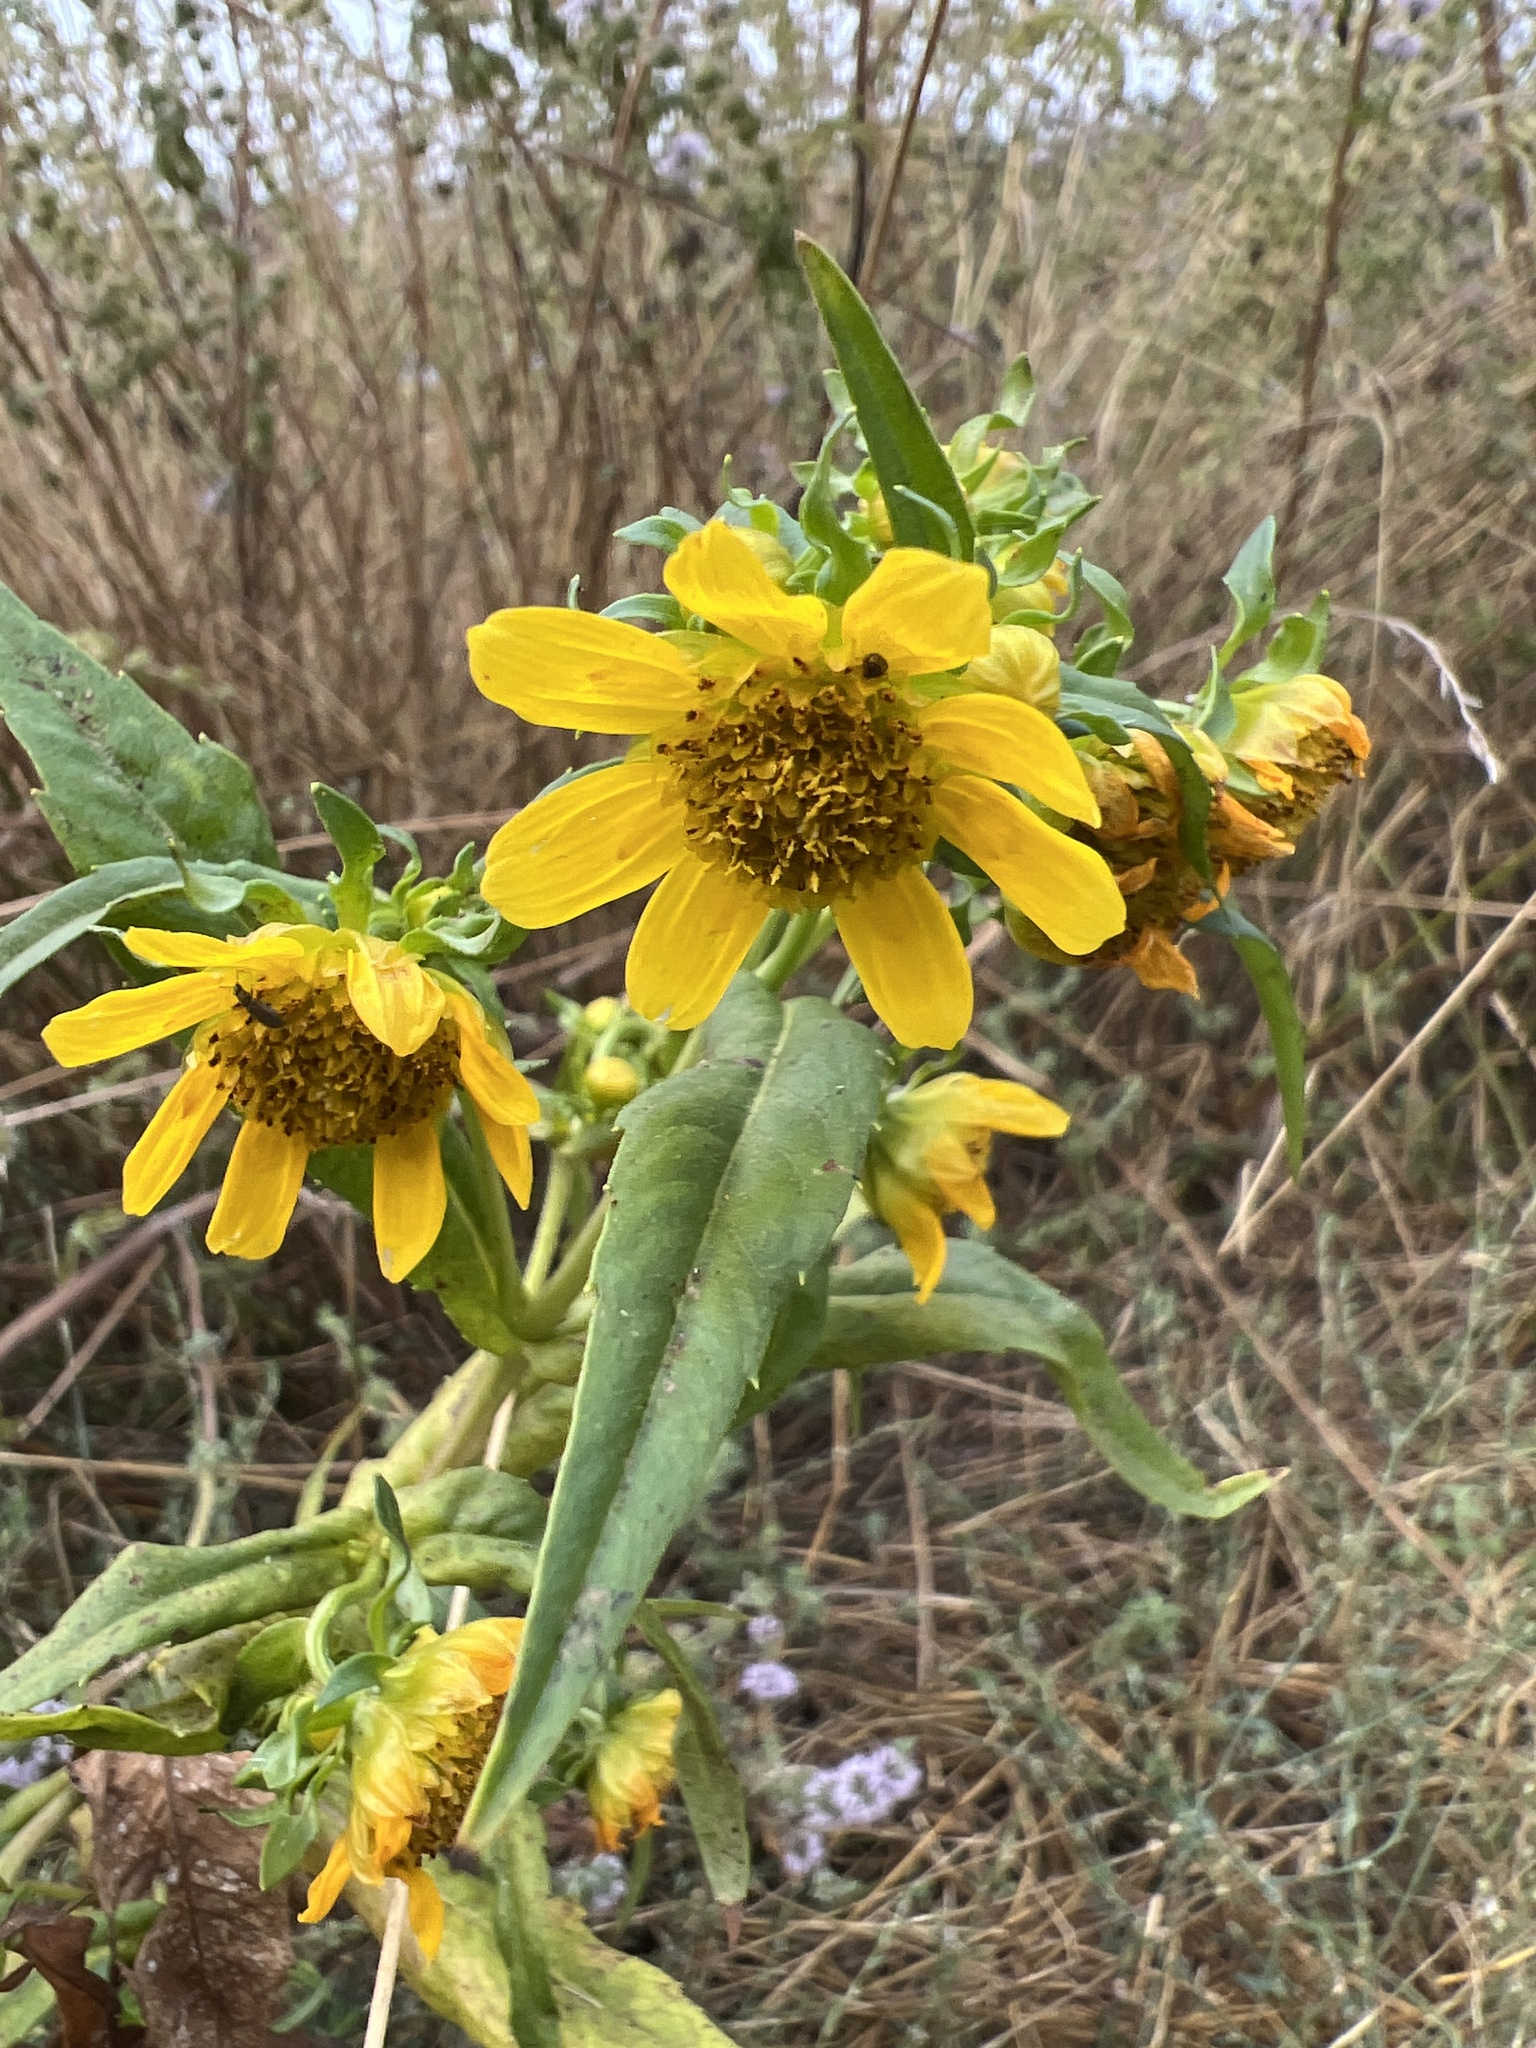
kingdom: Plantae
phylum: Tracheophyta
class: Magnoliopsida
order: Asterales
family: Asteraceae
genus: Bidens
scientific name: Bidens cernua
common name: Nodding bur-marigold
